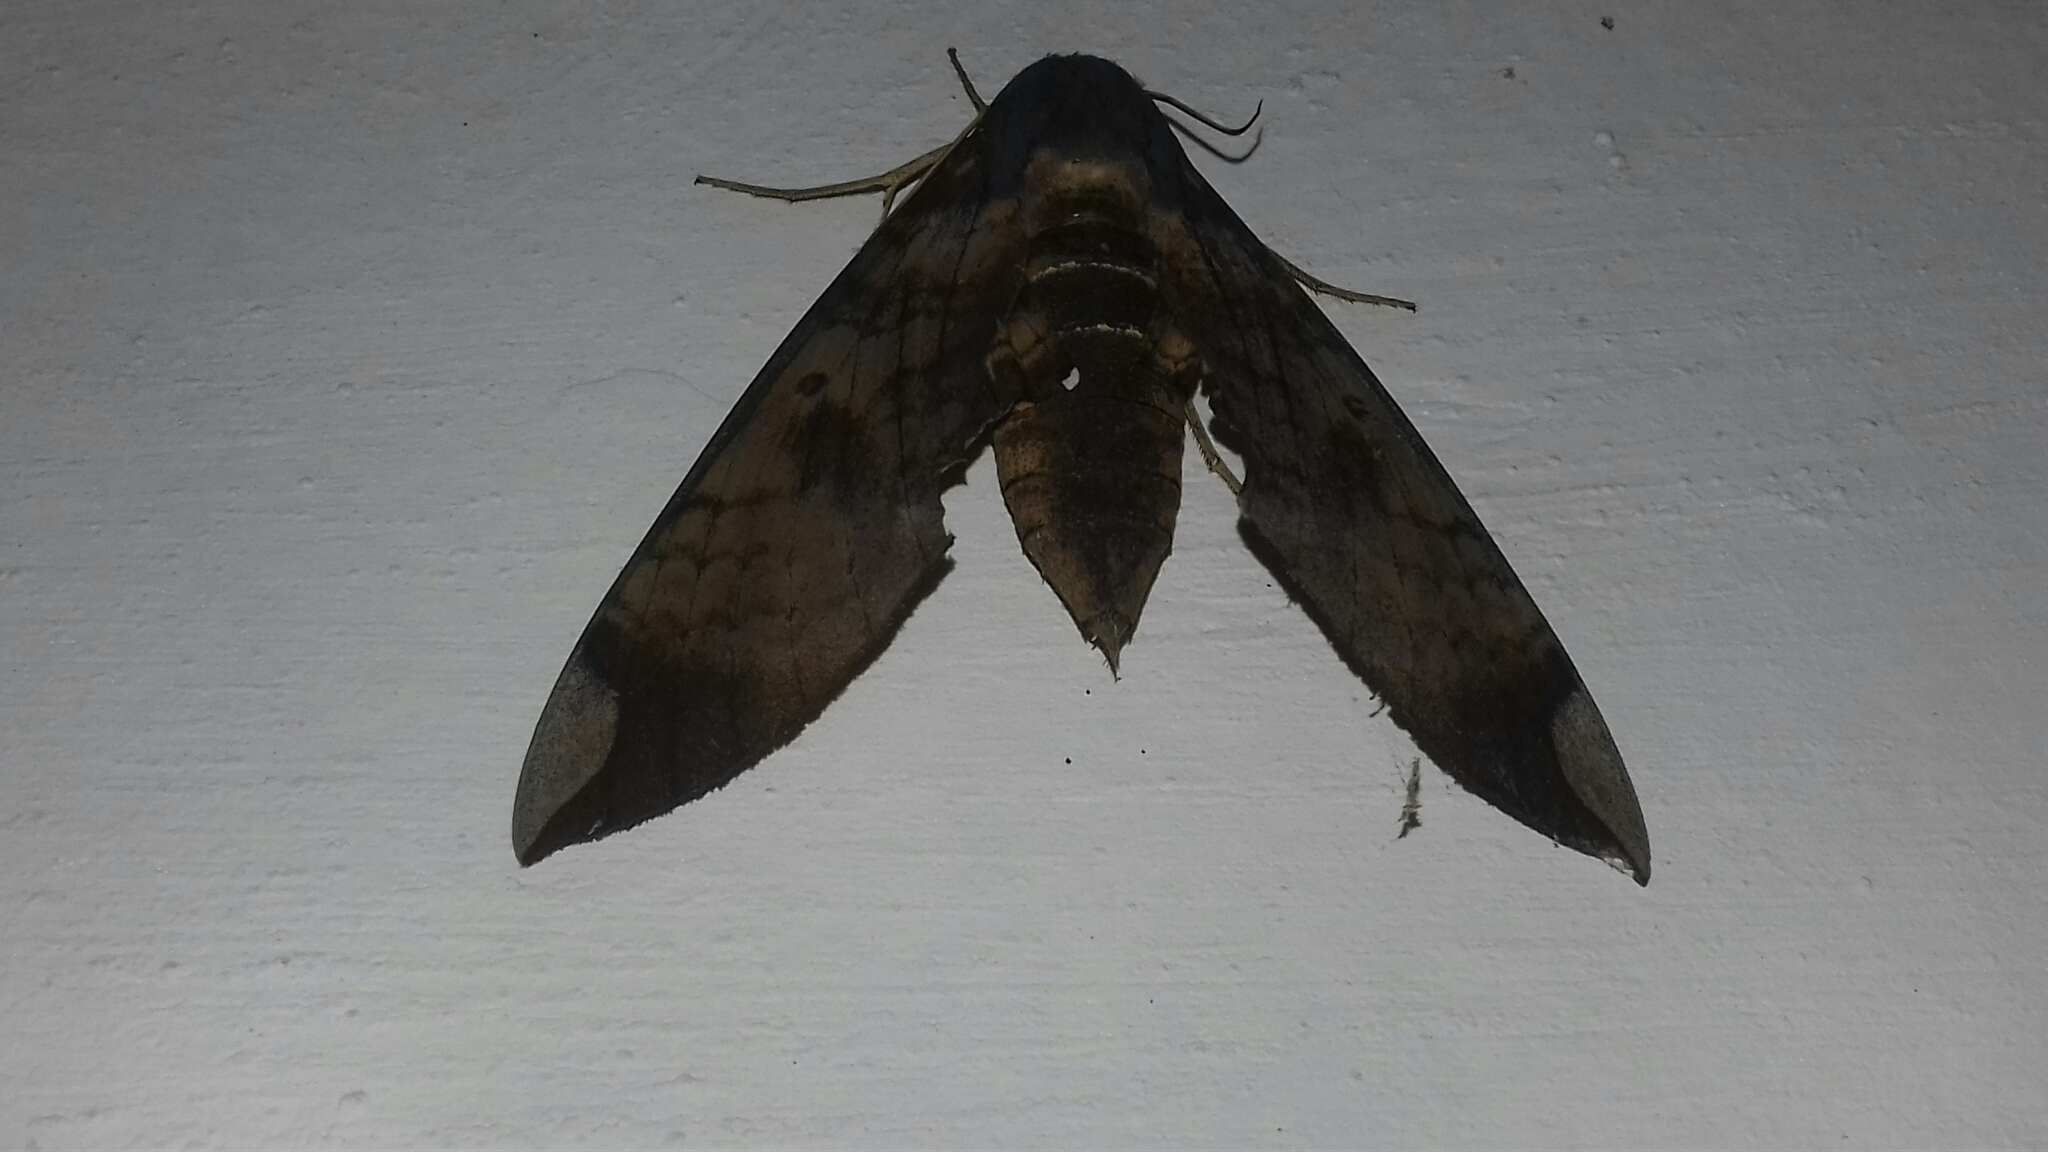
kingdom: Animalia
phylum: Arthropoda
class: Insecta
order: Lepidoptera
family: Sphingidae
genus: Pachylia
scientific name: Pachylia ficus
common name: Fig sphinx
